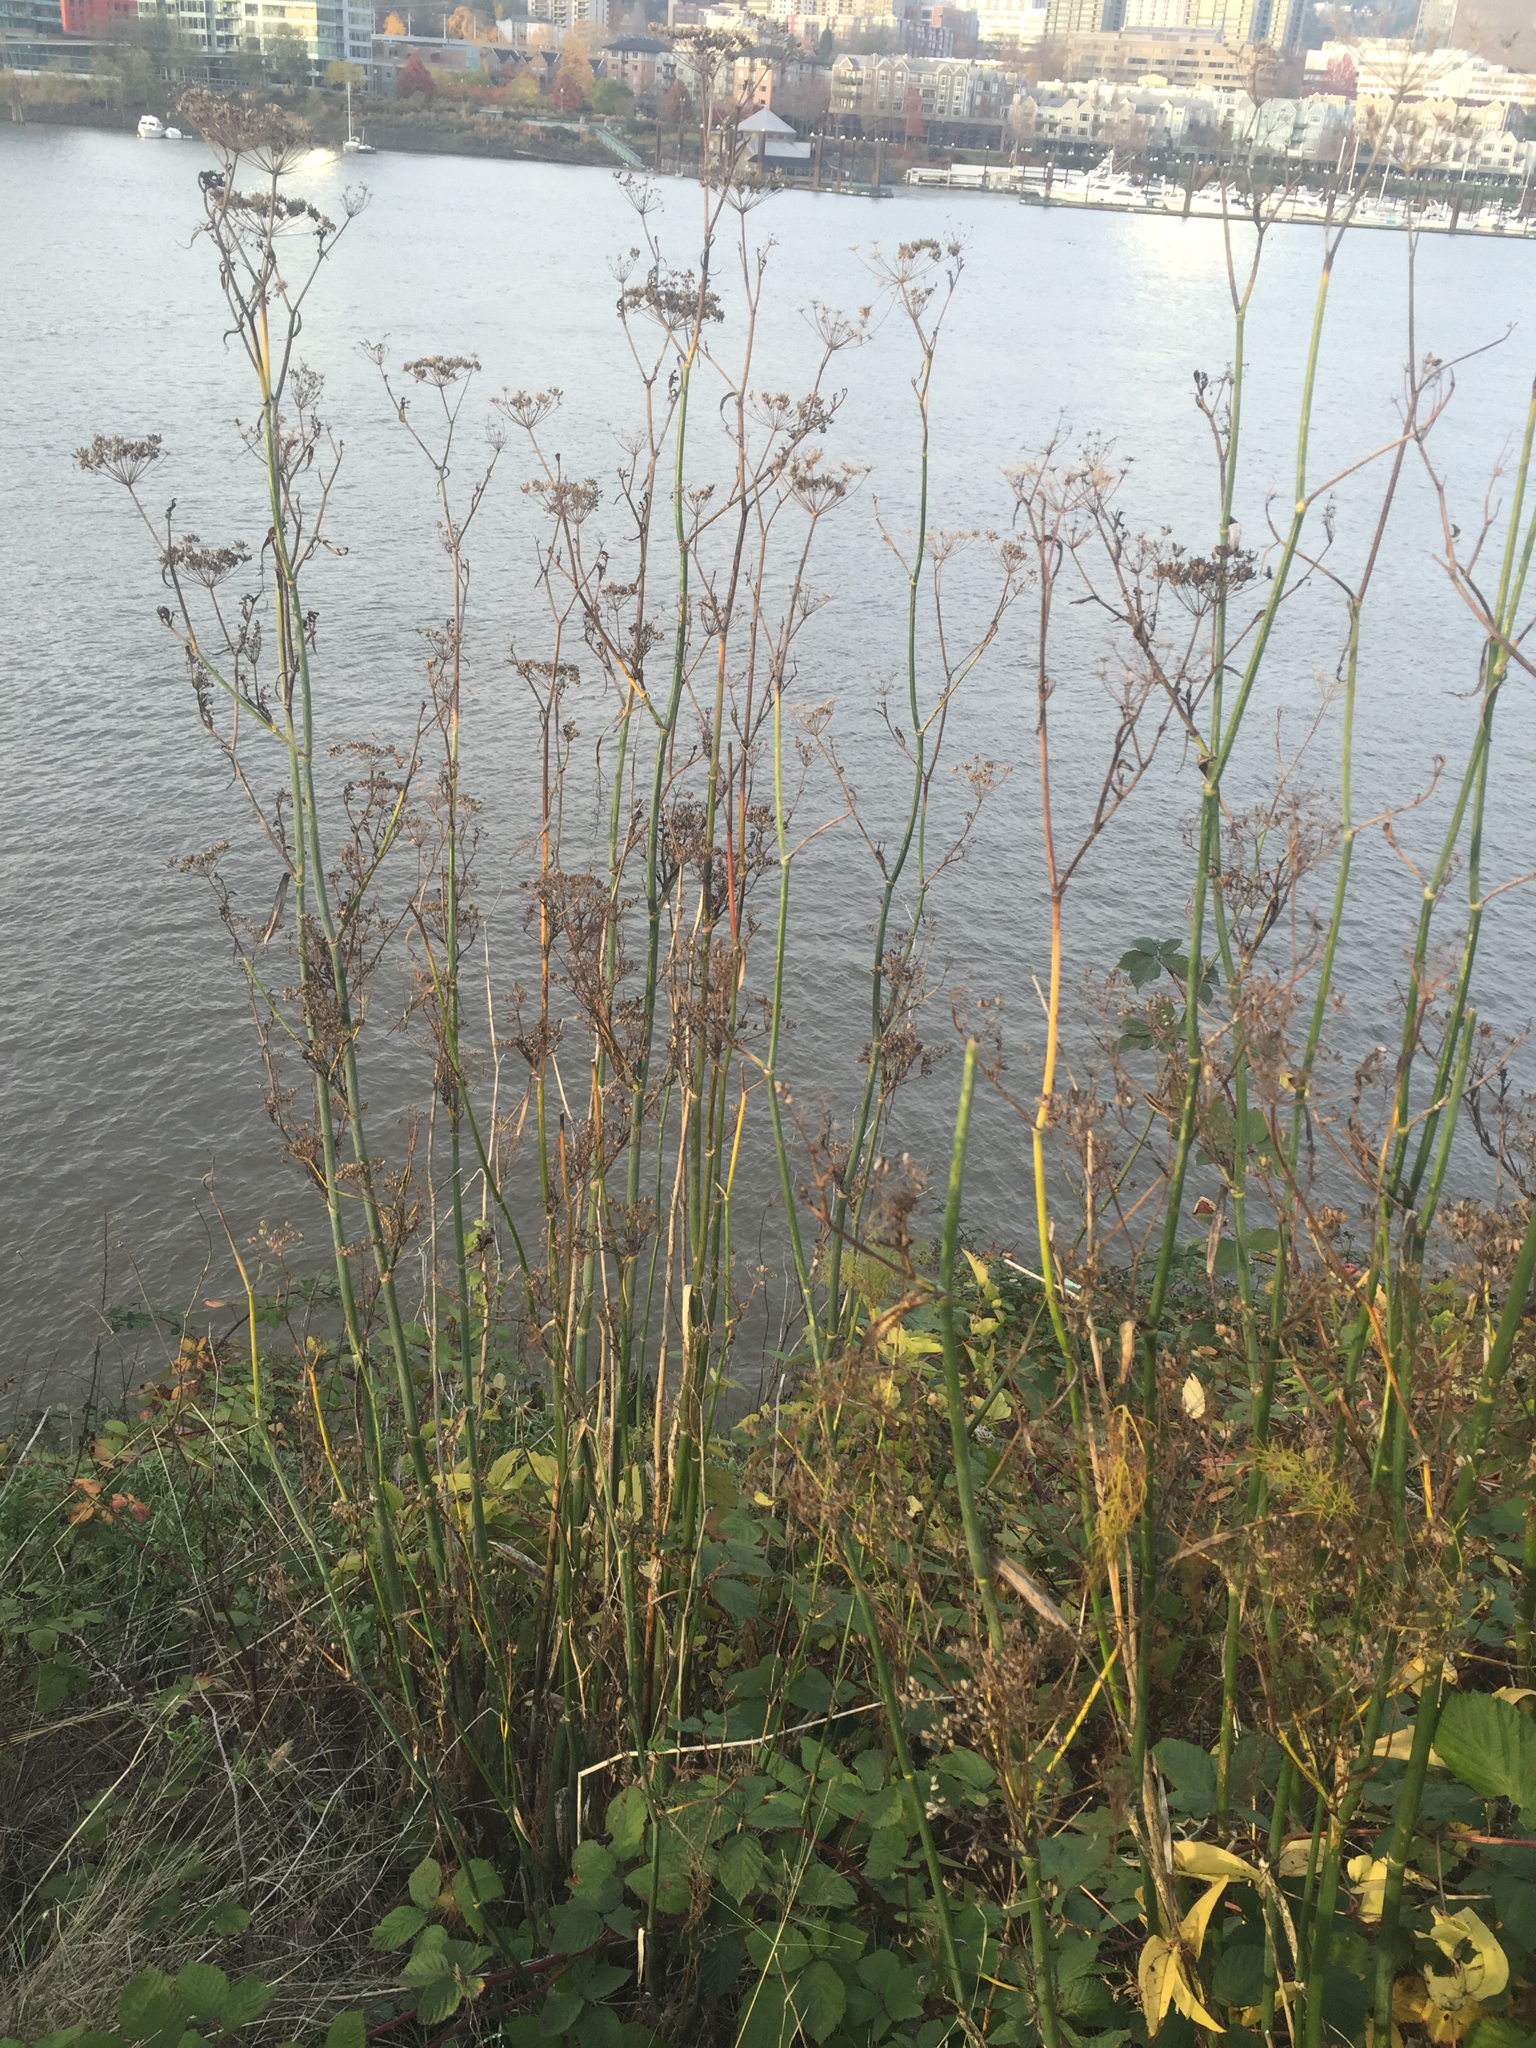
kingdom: Plantae
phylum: Tracheophyta
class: Magnoliopsida
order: Apiales
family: Apiaceae
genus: Foeniculum
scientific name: Foeniculum vulgare
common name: Fennel
